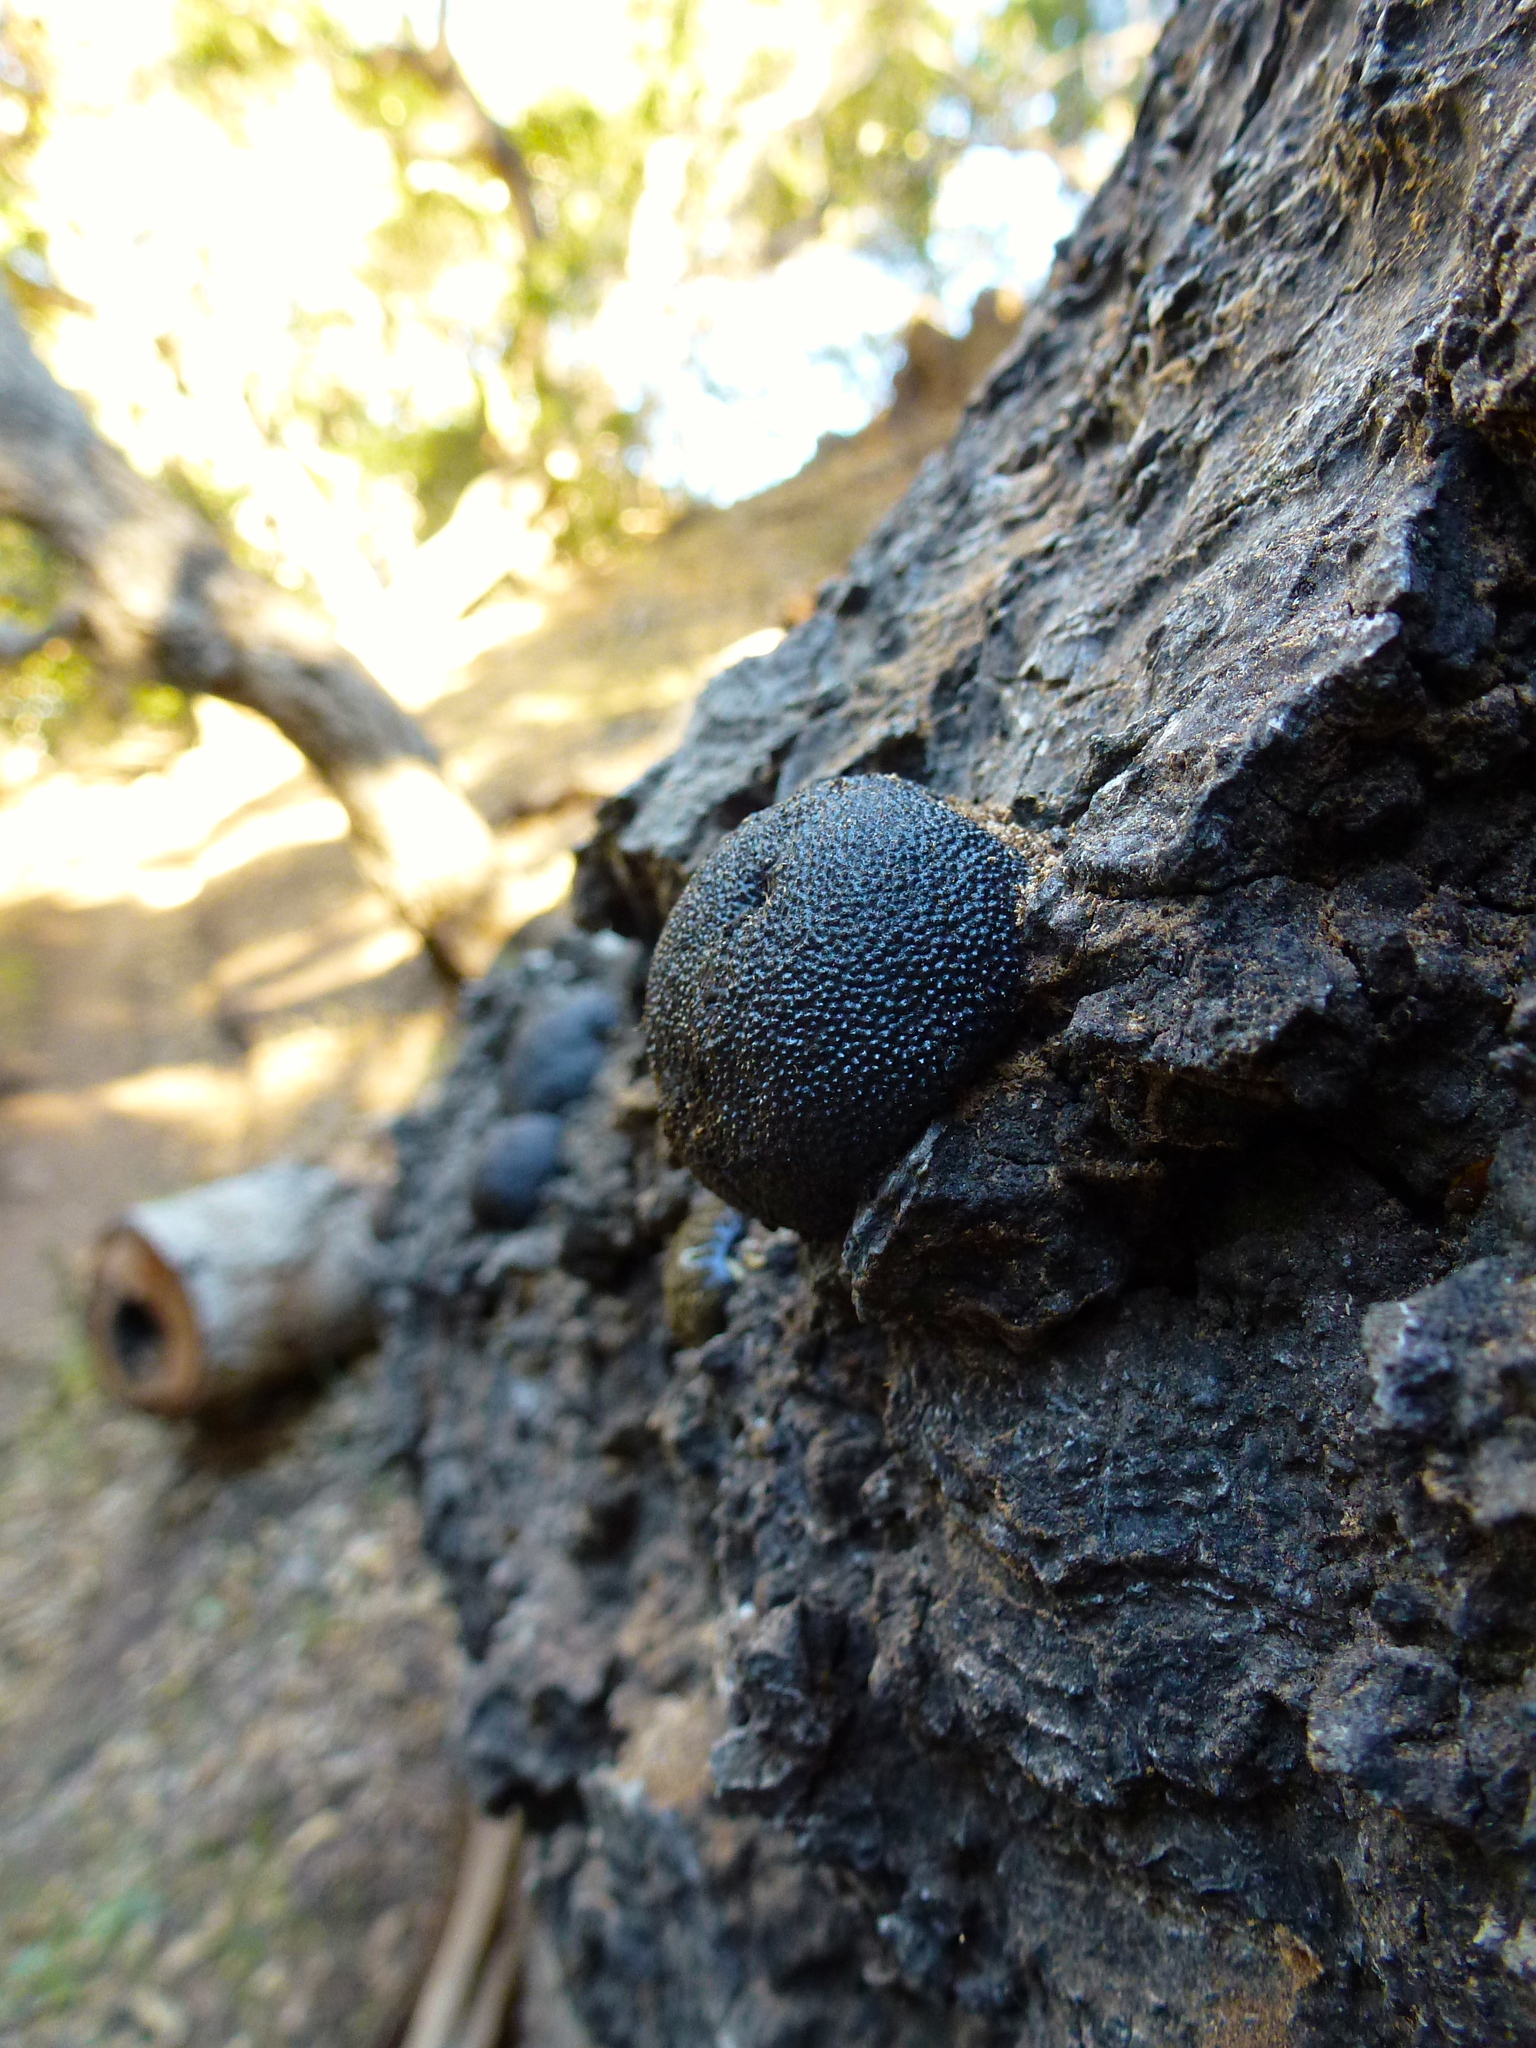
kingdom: Fungi
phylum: Ascomycota
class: Sordariomycetes
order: Xylariales
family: Hypoxylaceae
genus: Annulohypoxylon
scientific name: Annulohypoxylon thouarsianum
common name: Cramp balls
